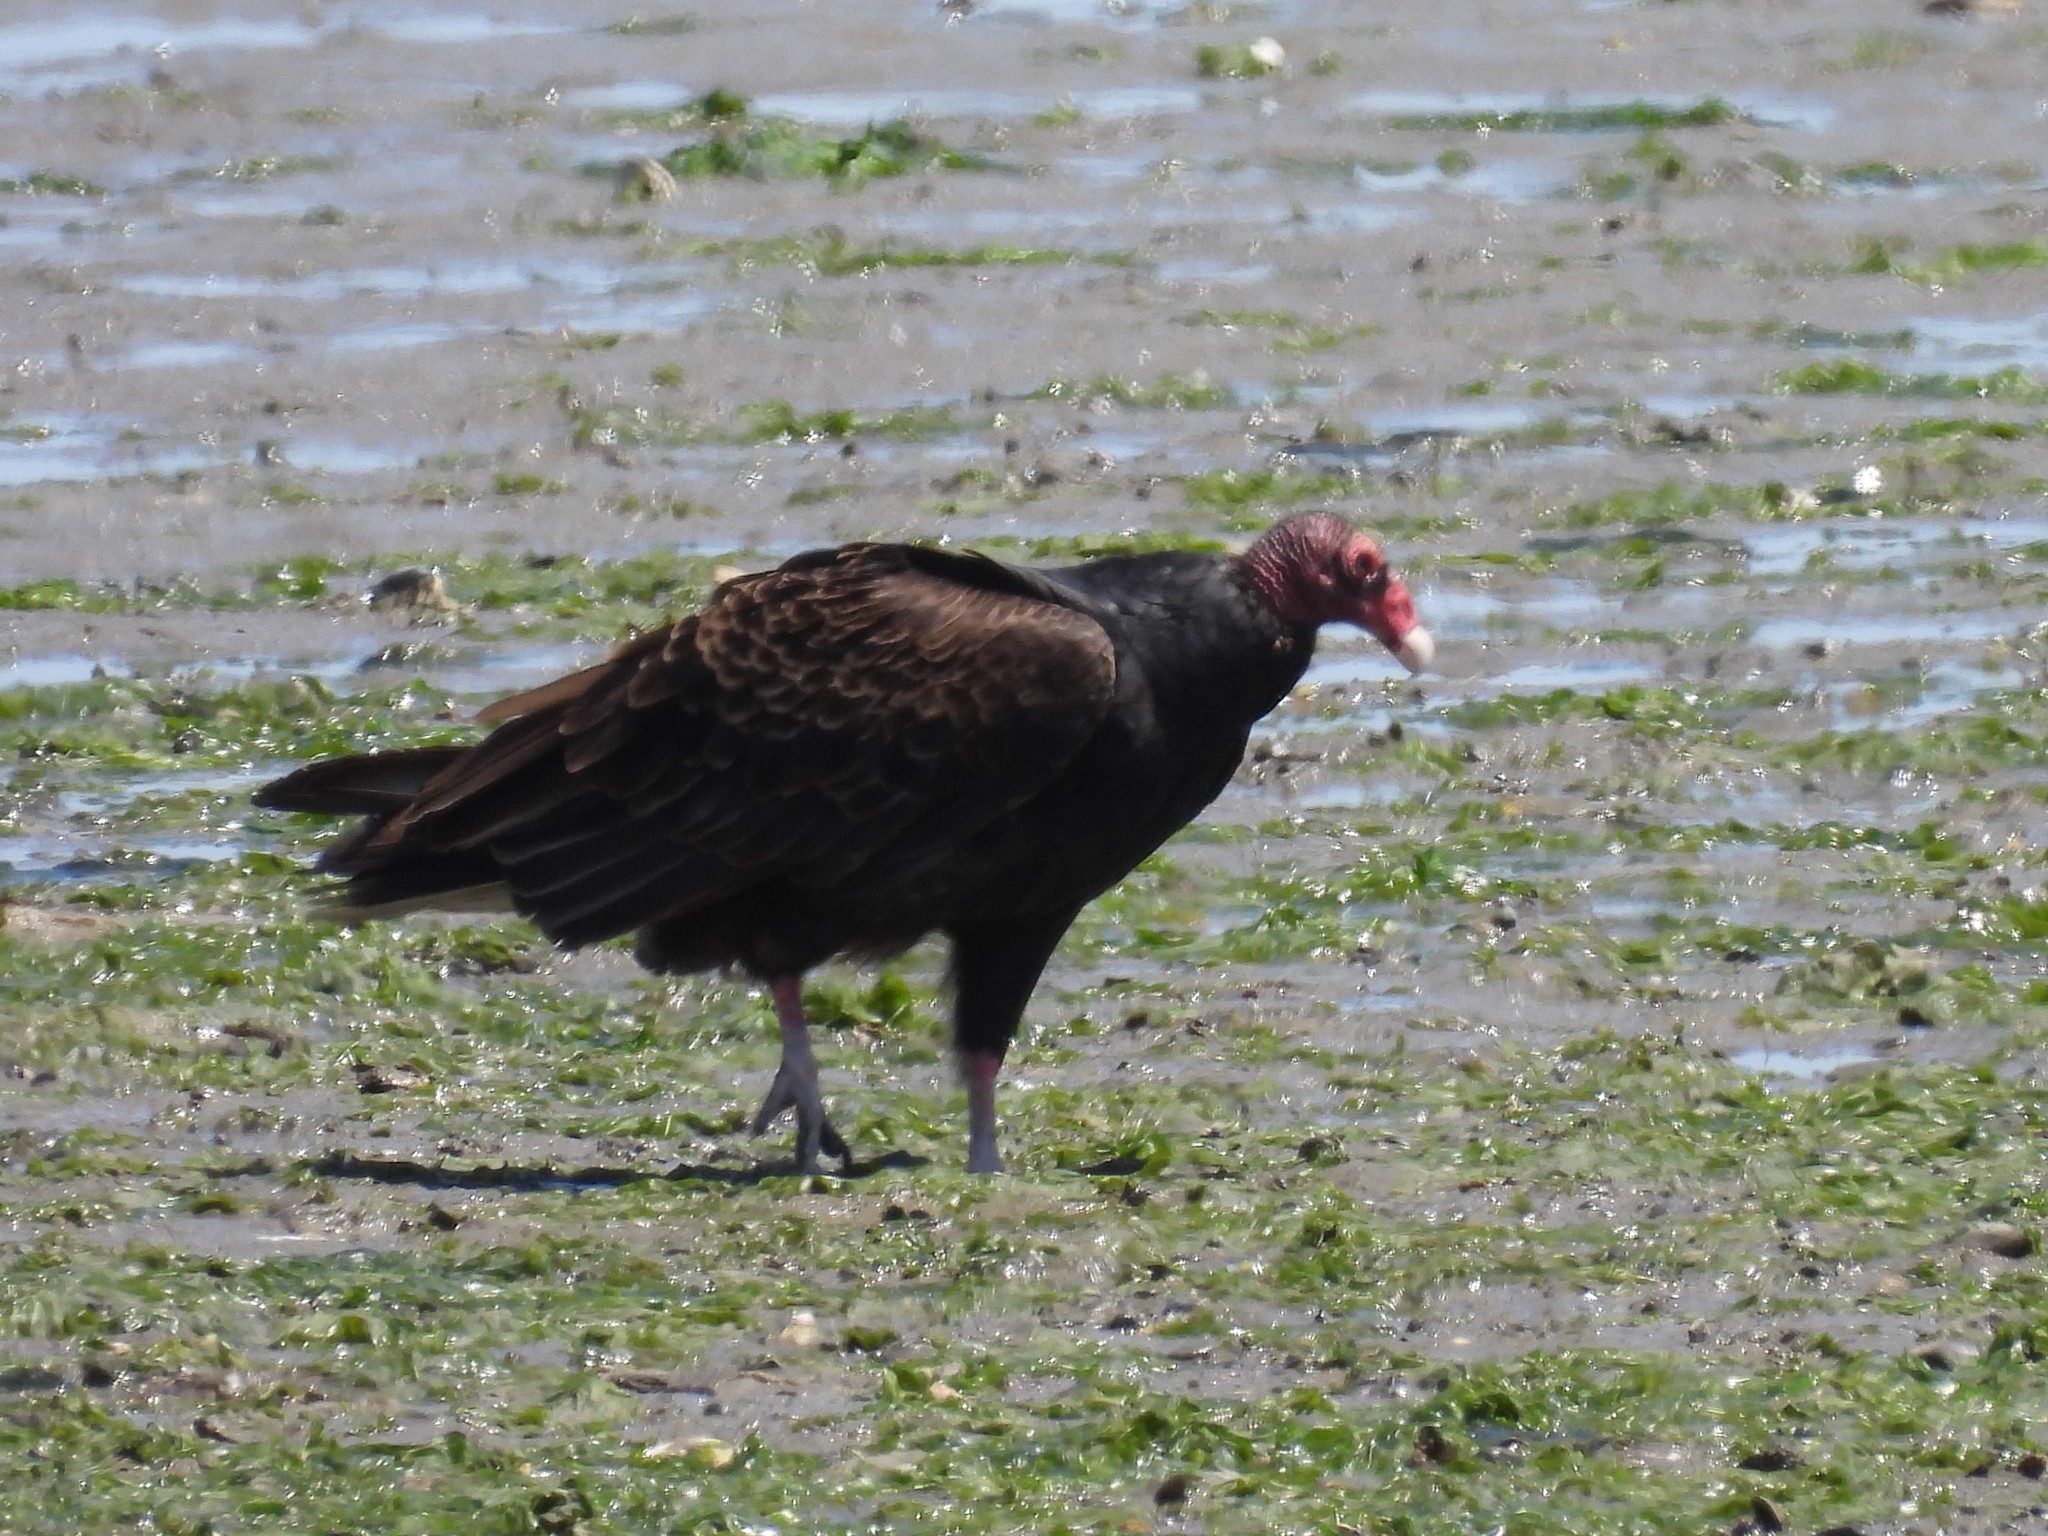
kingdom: Animalia
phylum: Chordata
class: Aves
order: Accipitriformes
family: Cathartidae
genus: Cathartes
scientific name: Cathartes aura
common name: Turkey vulture
